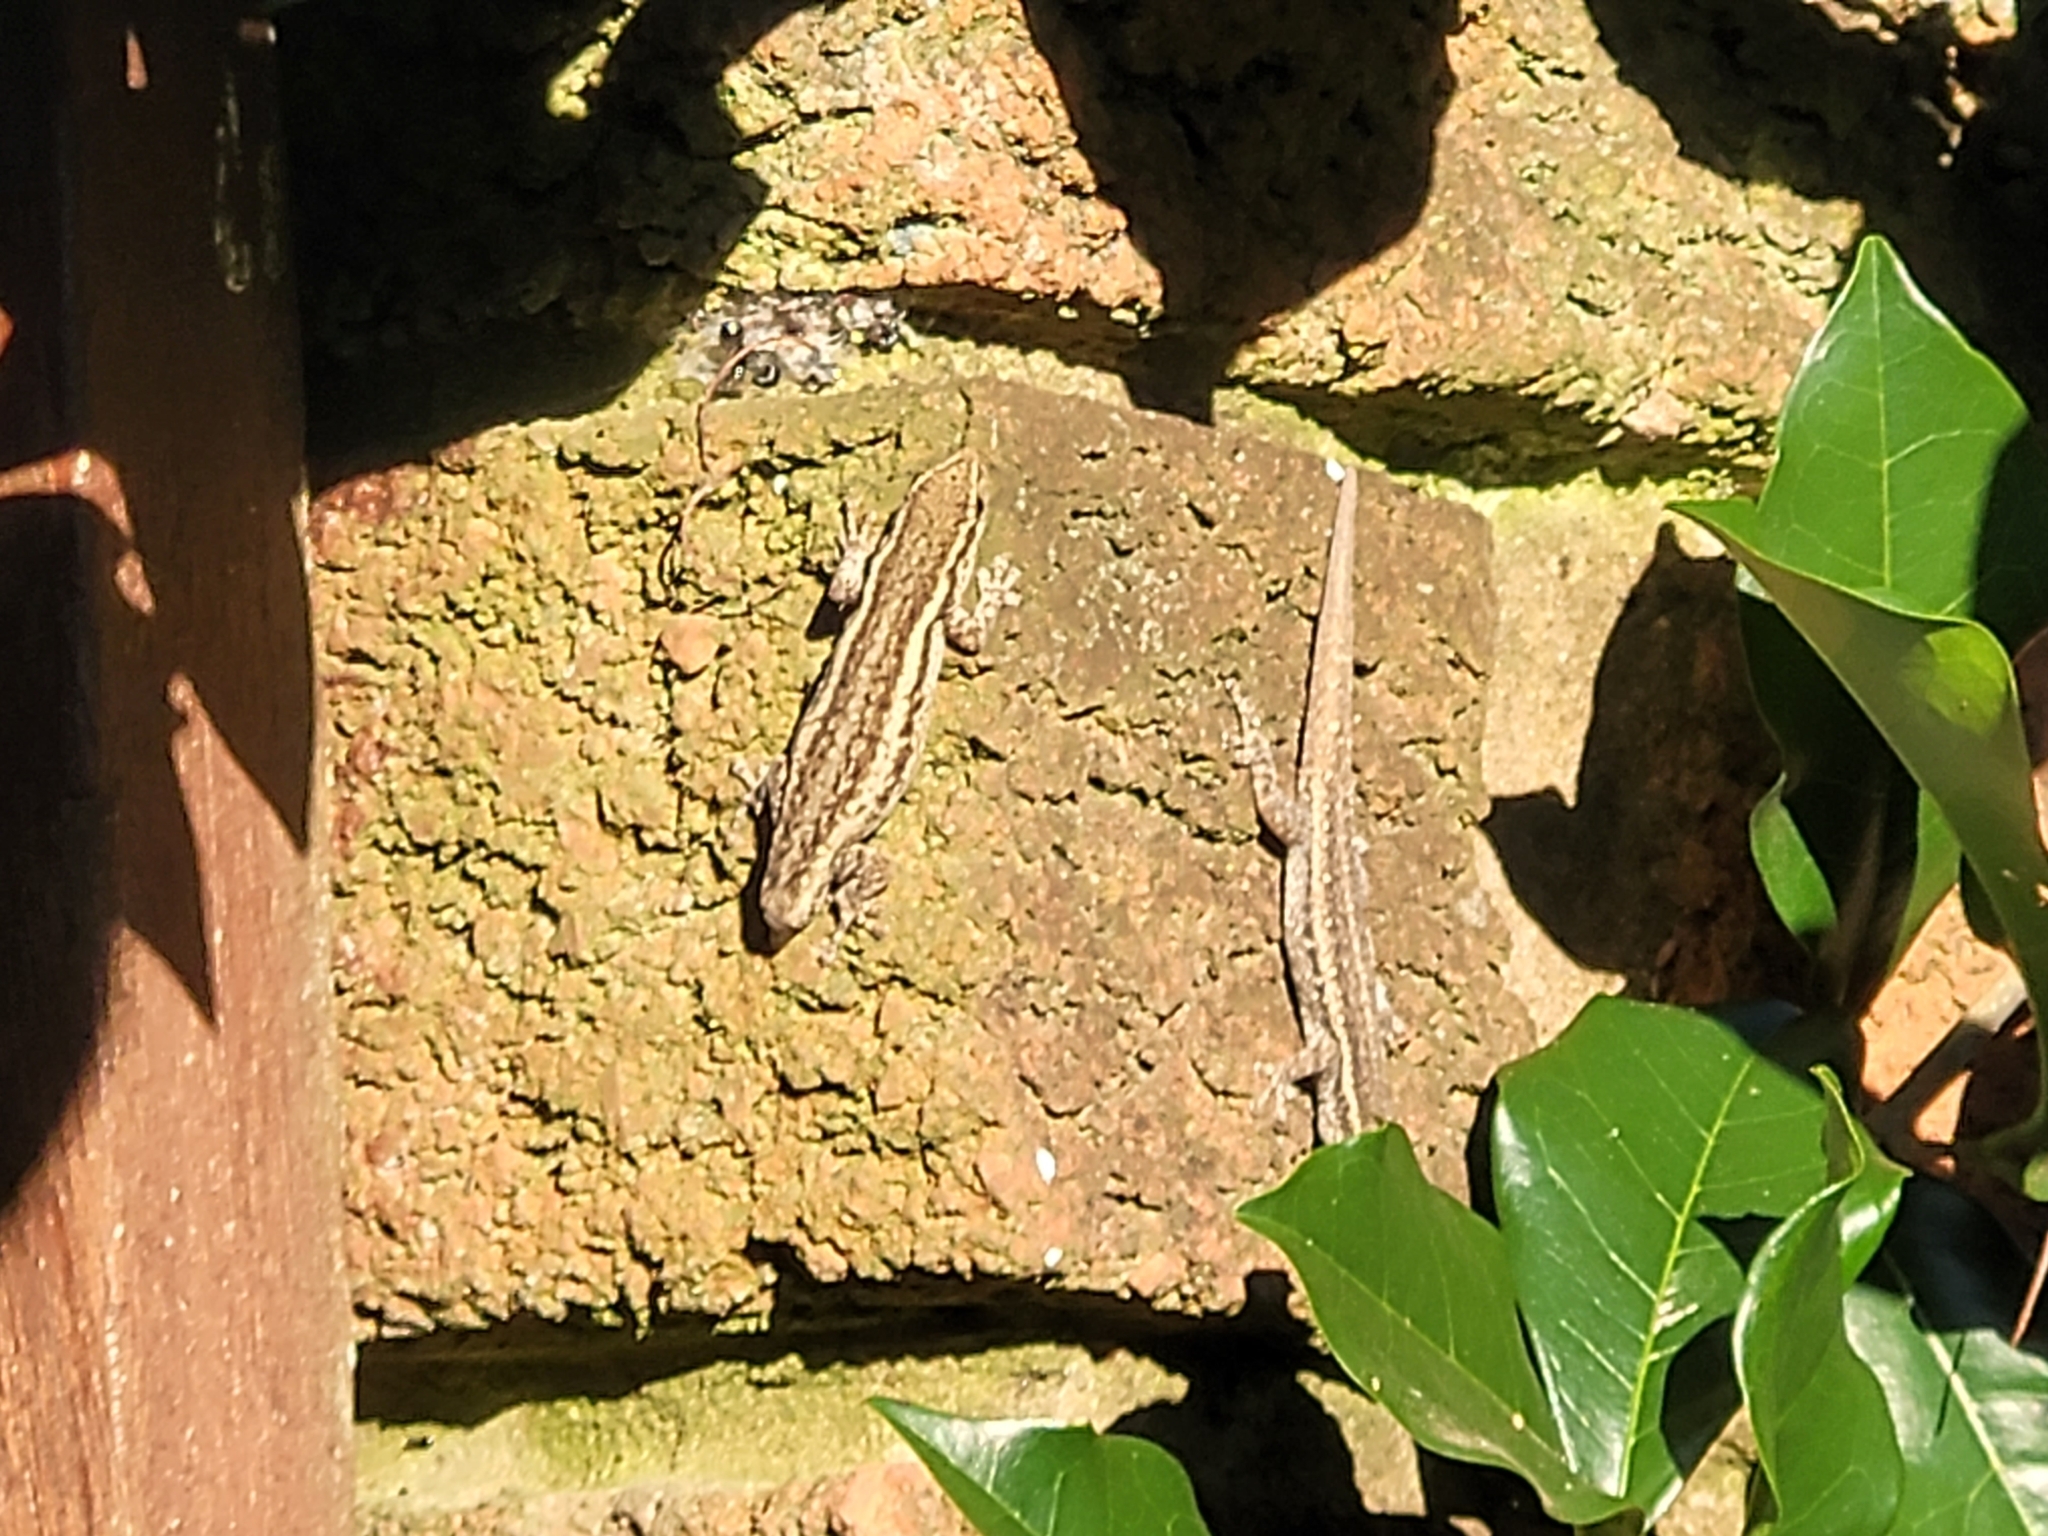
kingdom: Animalia
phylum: Chordata
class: Squamata
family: Gekkonidae
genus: Lygodactylus
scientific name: Lygodactylus capensis
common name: Cape dwarf gecko
